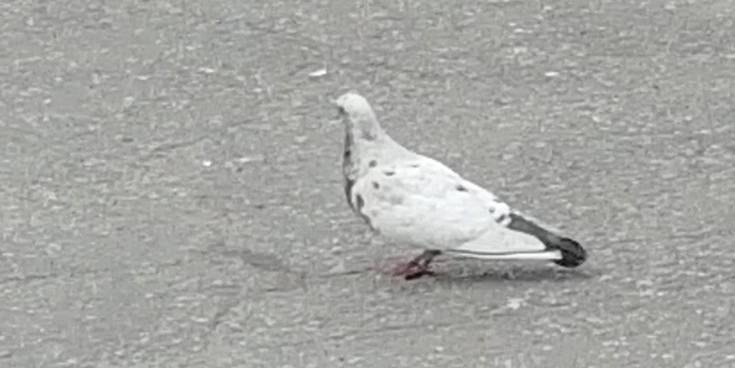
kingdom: Animalia
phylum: Chordata
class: Aves
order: Columbiformes
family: Columbidae
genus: Columba
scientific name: Columba livia
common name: Rock pigeon
